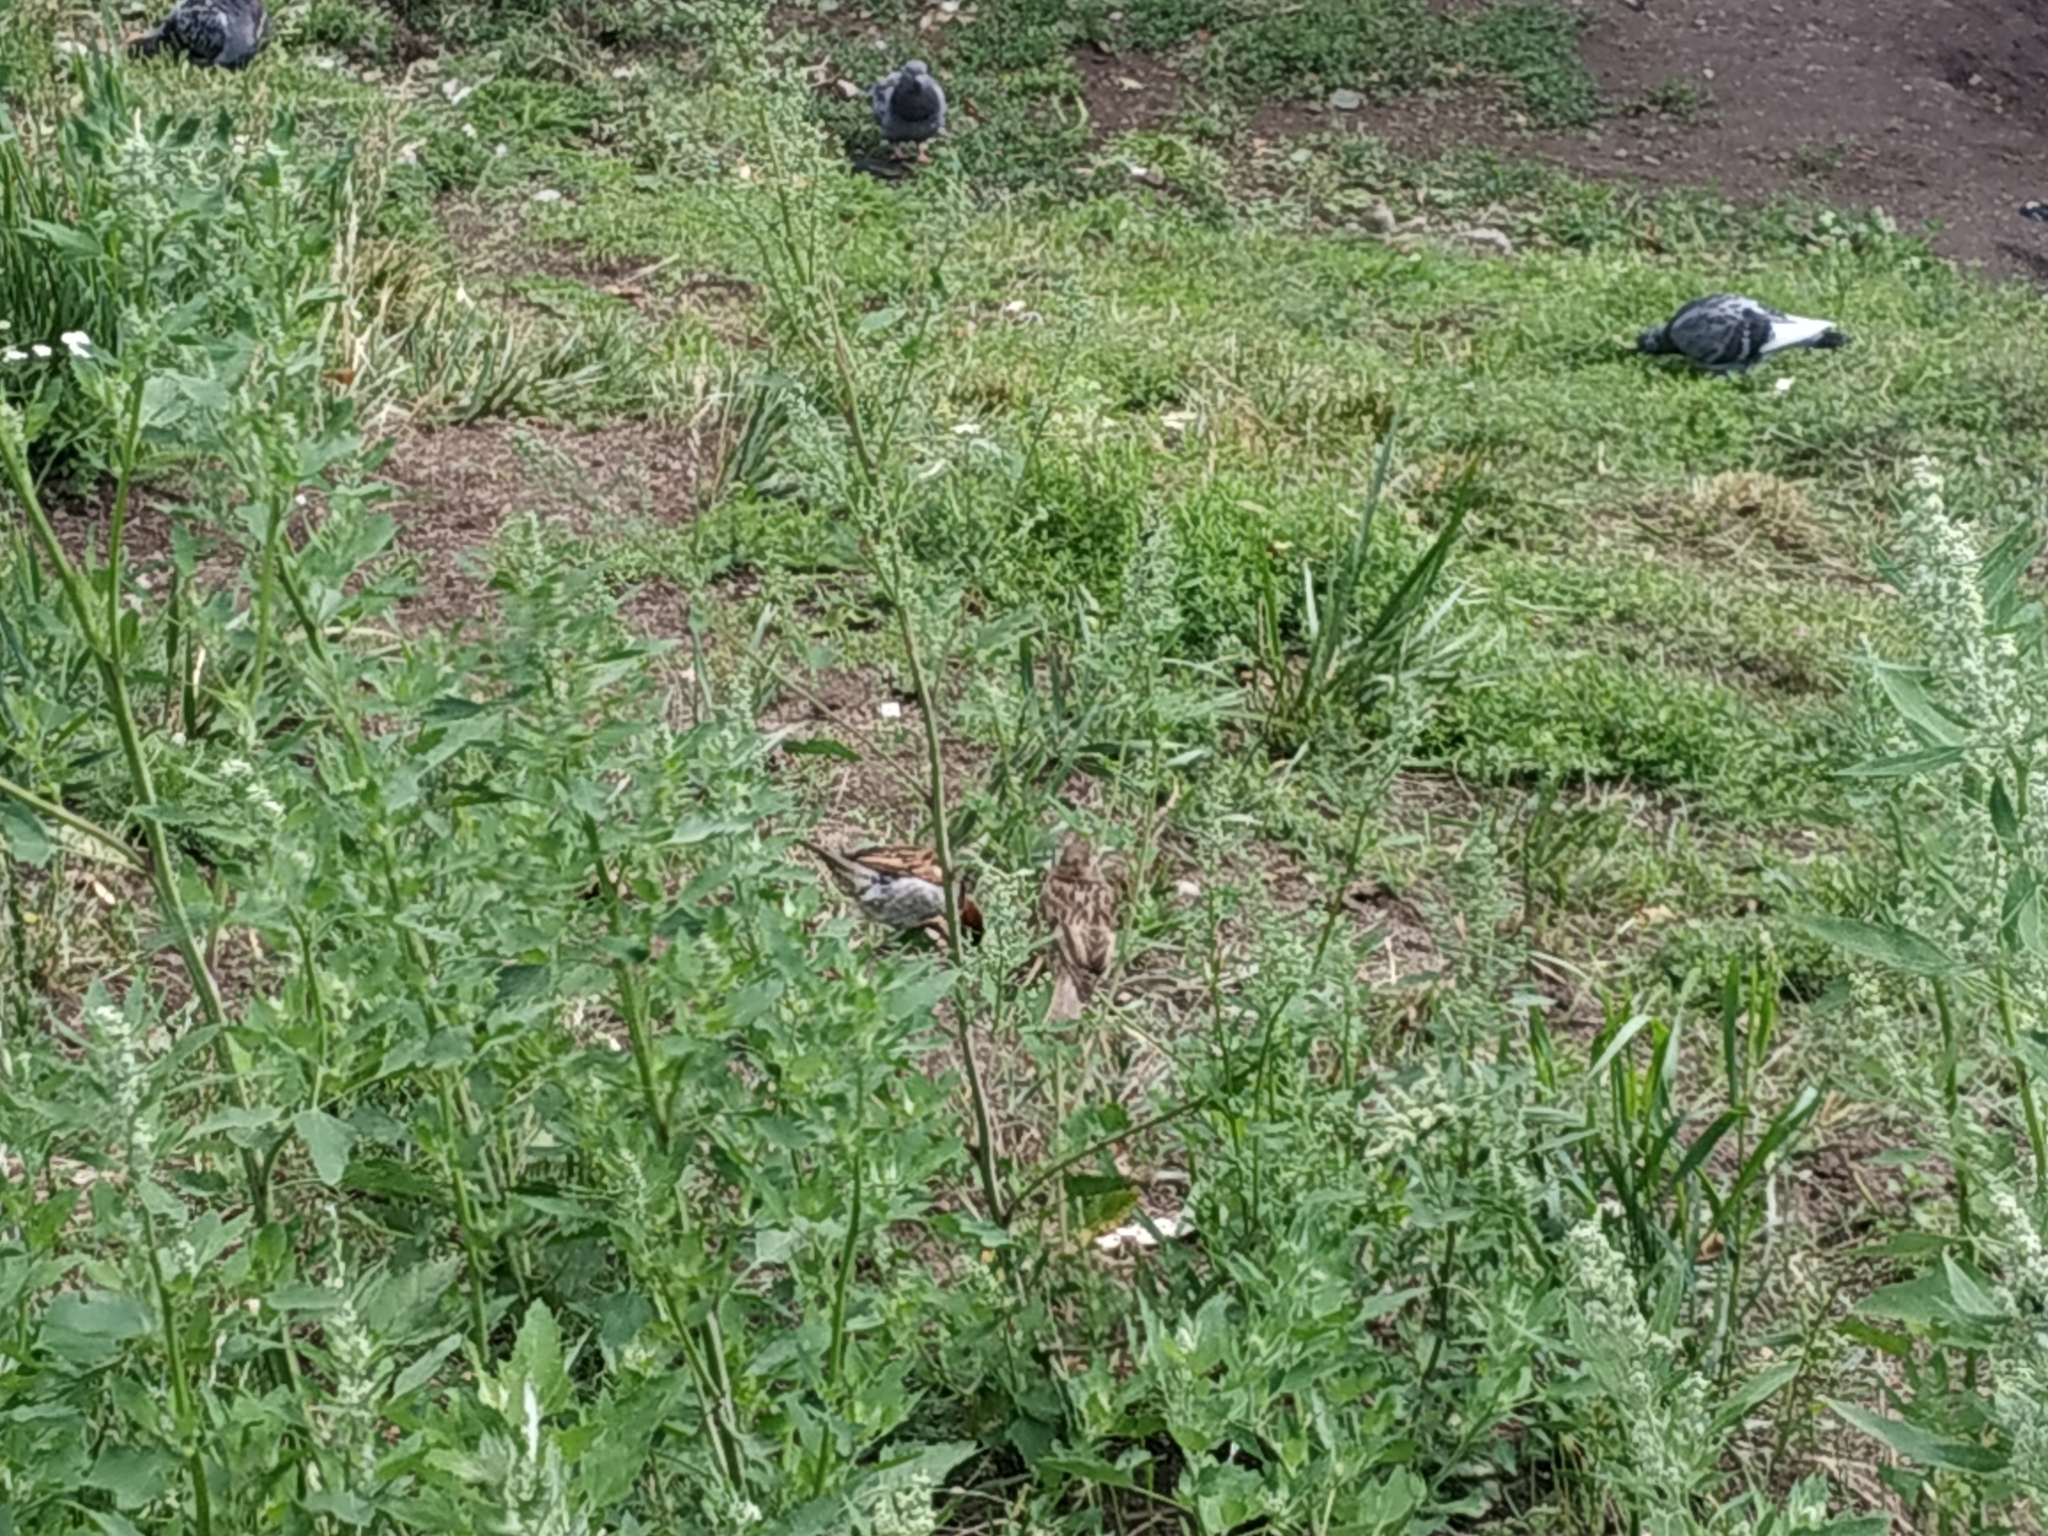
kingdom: Animalia
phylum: Chordata
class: Aves
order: Passeriformes
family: Passeridae
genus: Passer
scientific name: Passer domesticus
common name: House sparrow
